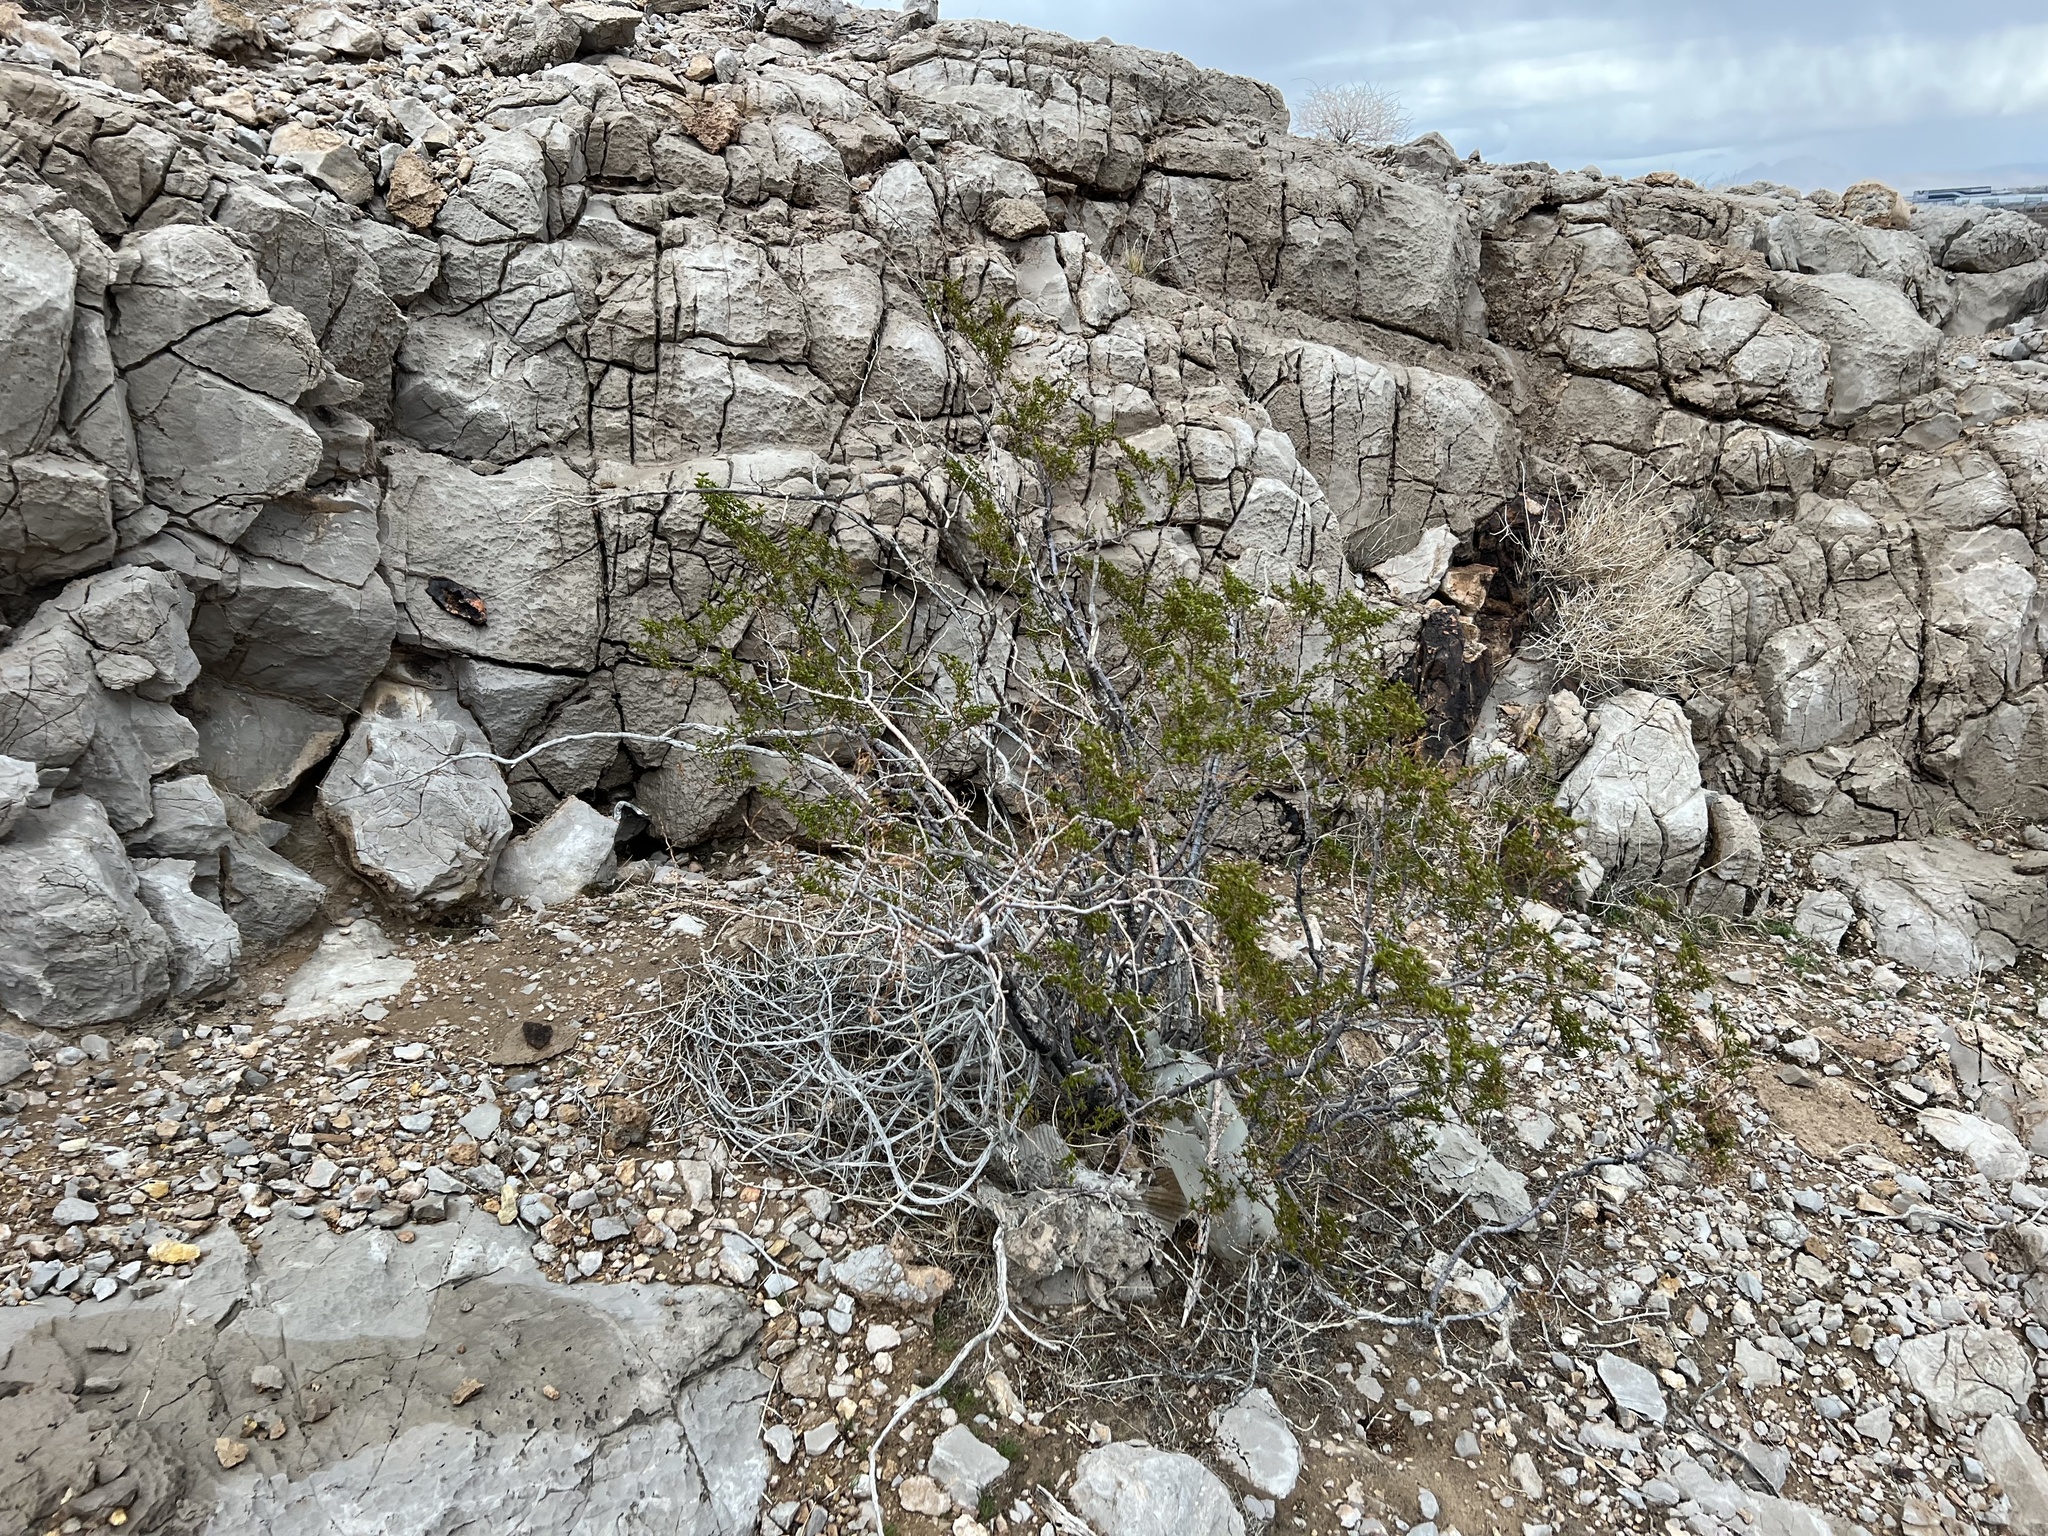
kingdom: Plantae
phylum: Tracheophyta
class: Magnoliopsida
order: Zygophyllales
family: Zygophyllaceae
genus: Larrea
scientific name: Larrea tridentata
